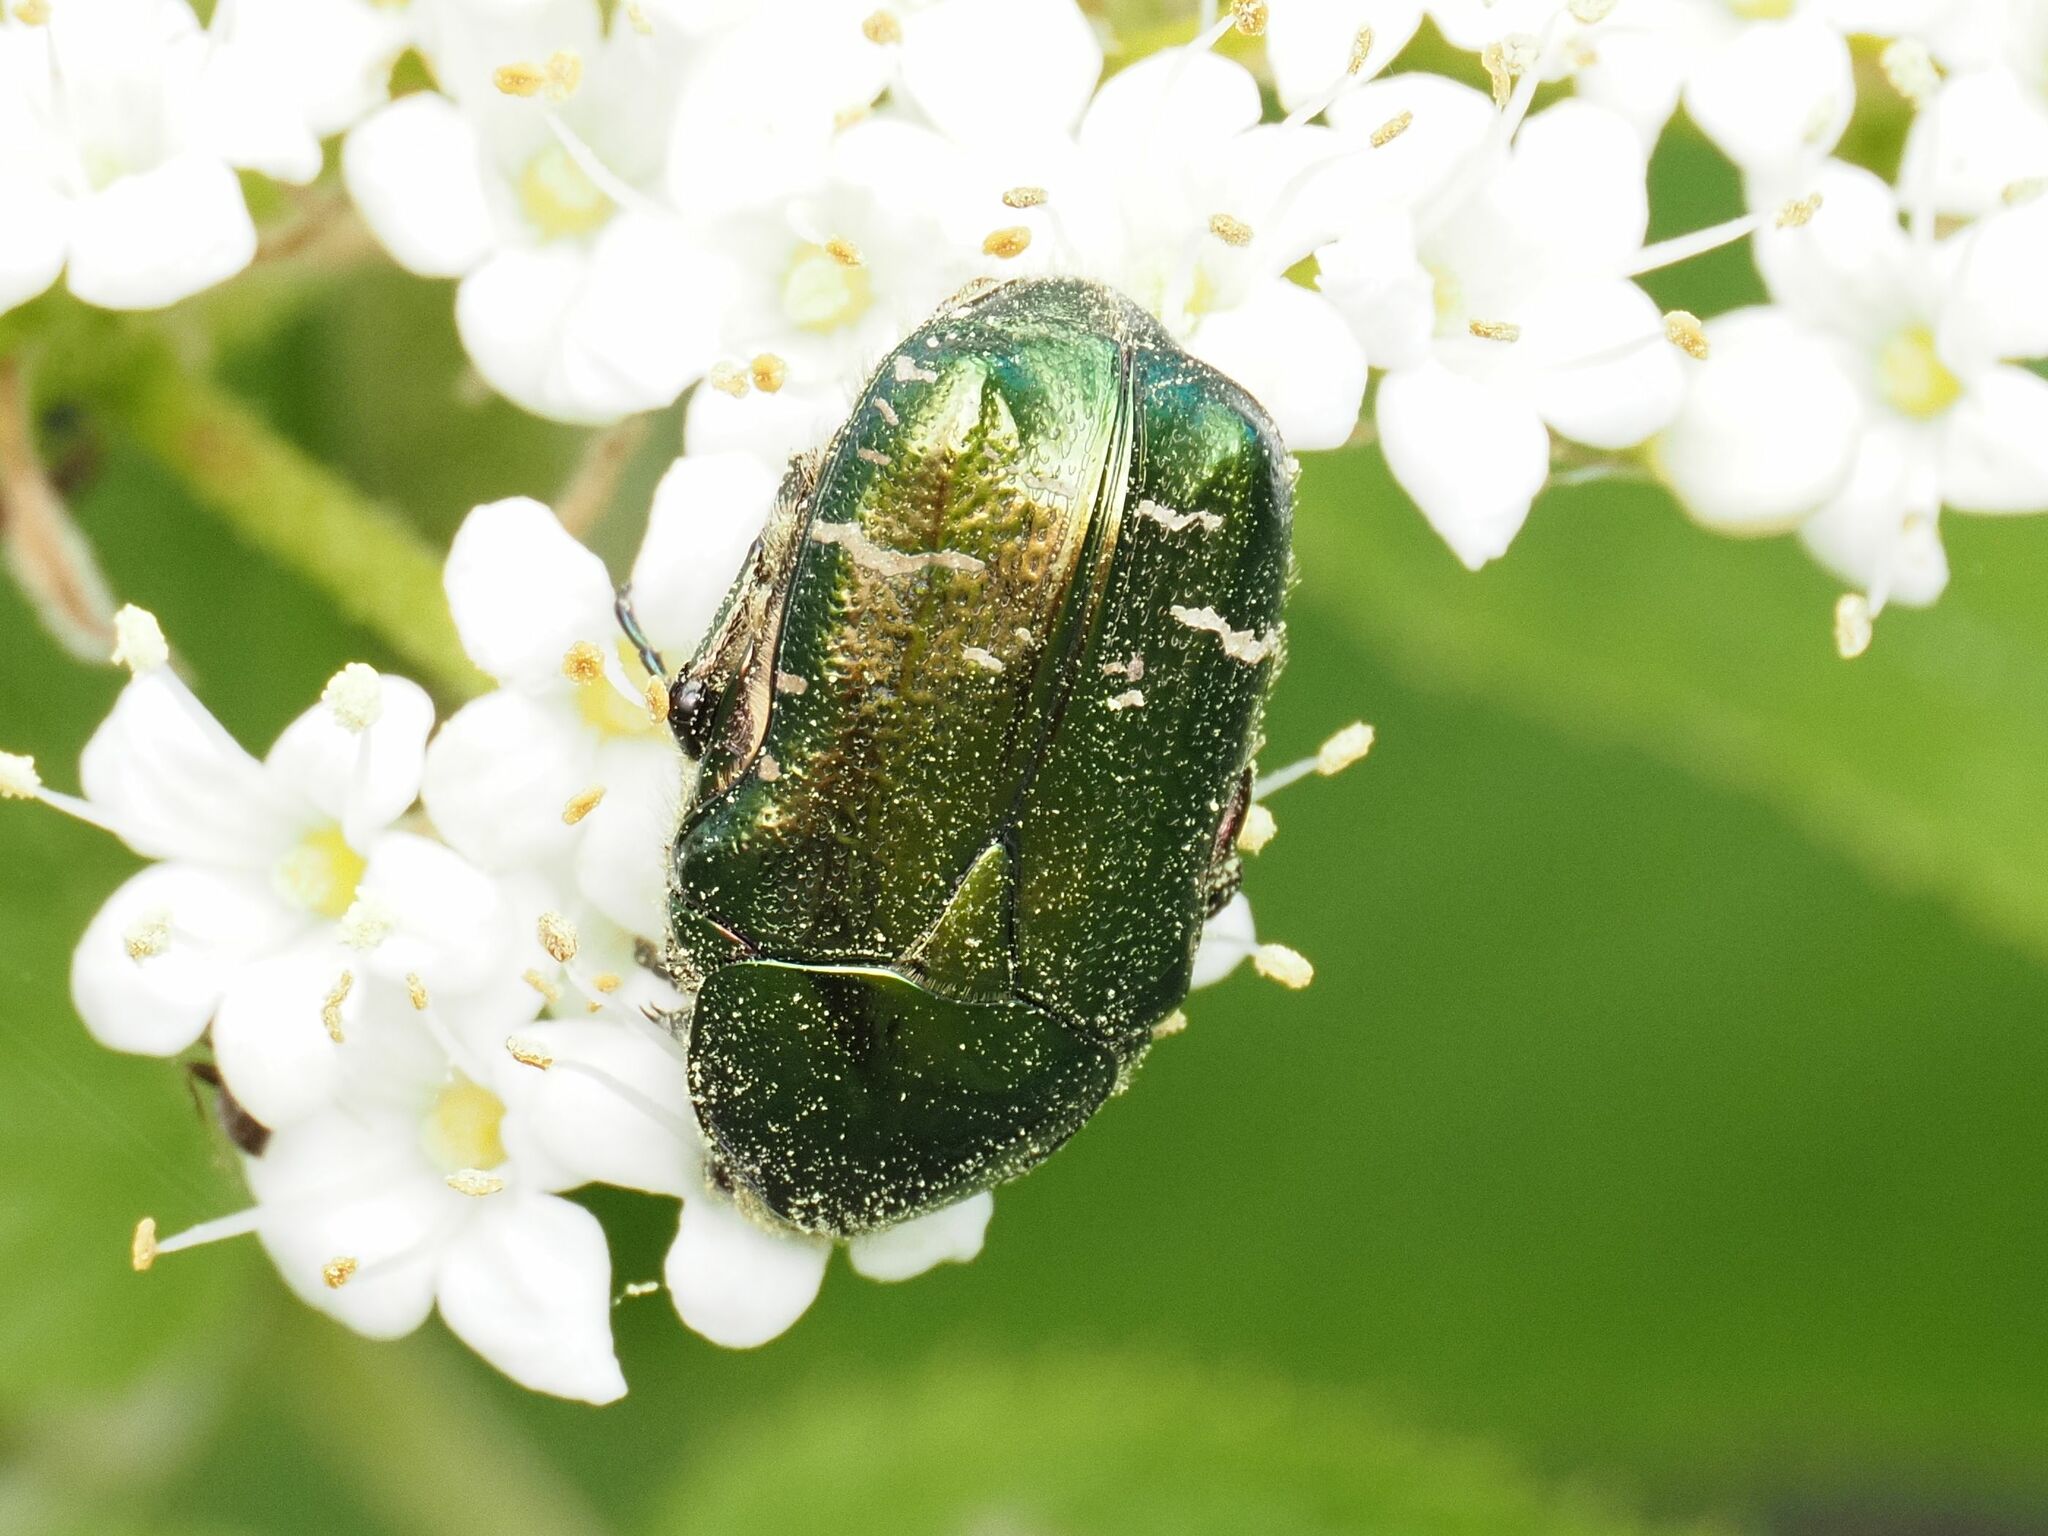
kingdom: Animalia
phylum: Arthropoda
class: Insecta
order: Coleoptera
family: Scarabaeidae
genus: Cetonia
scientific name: Cetonia aurata
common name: Rose chafer
